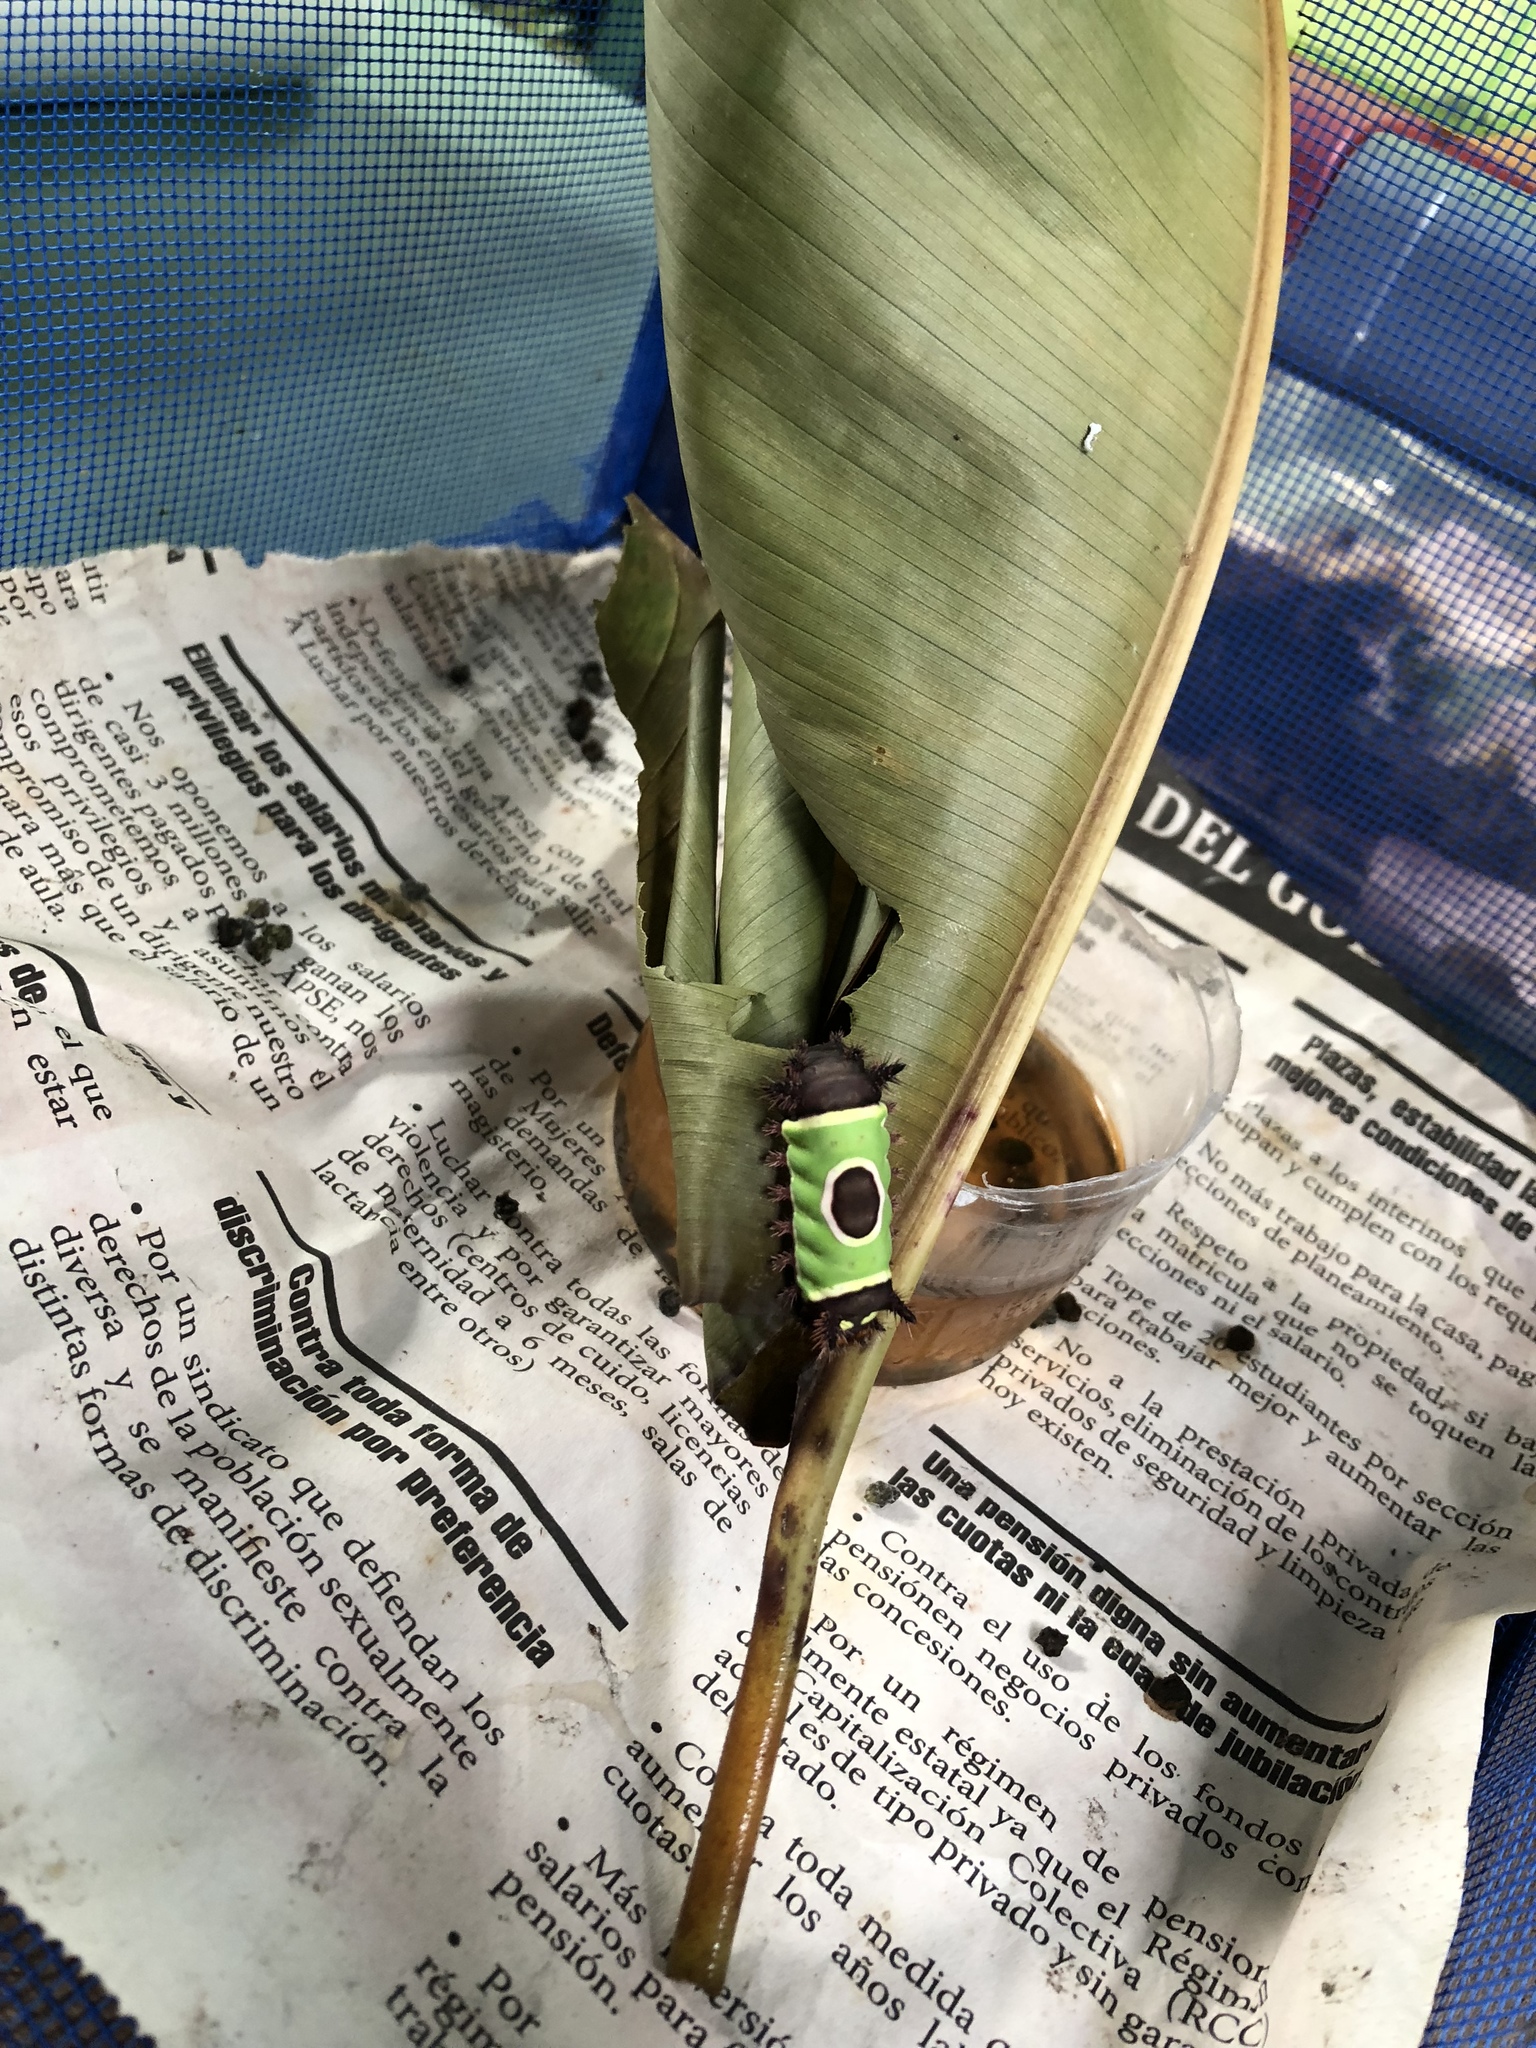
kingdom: Animalia
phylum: Arthropoda
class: Insecta
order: Lepidoptera
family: Limacodidae
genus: Acharia
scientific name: Acharia hyperoche
